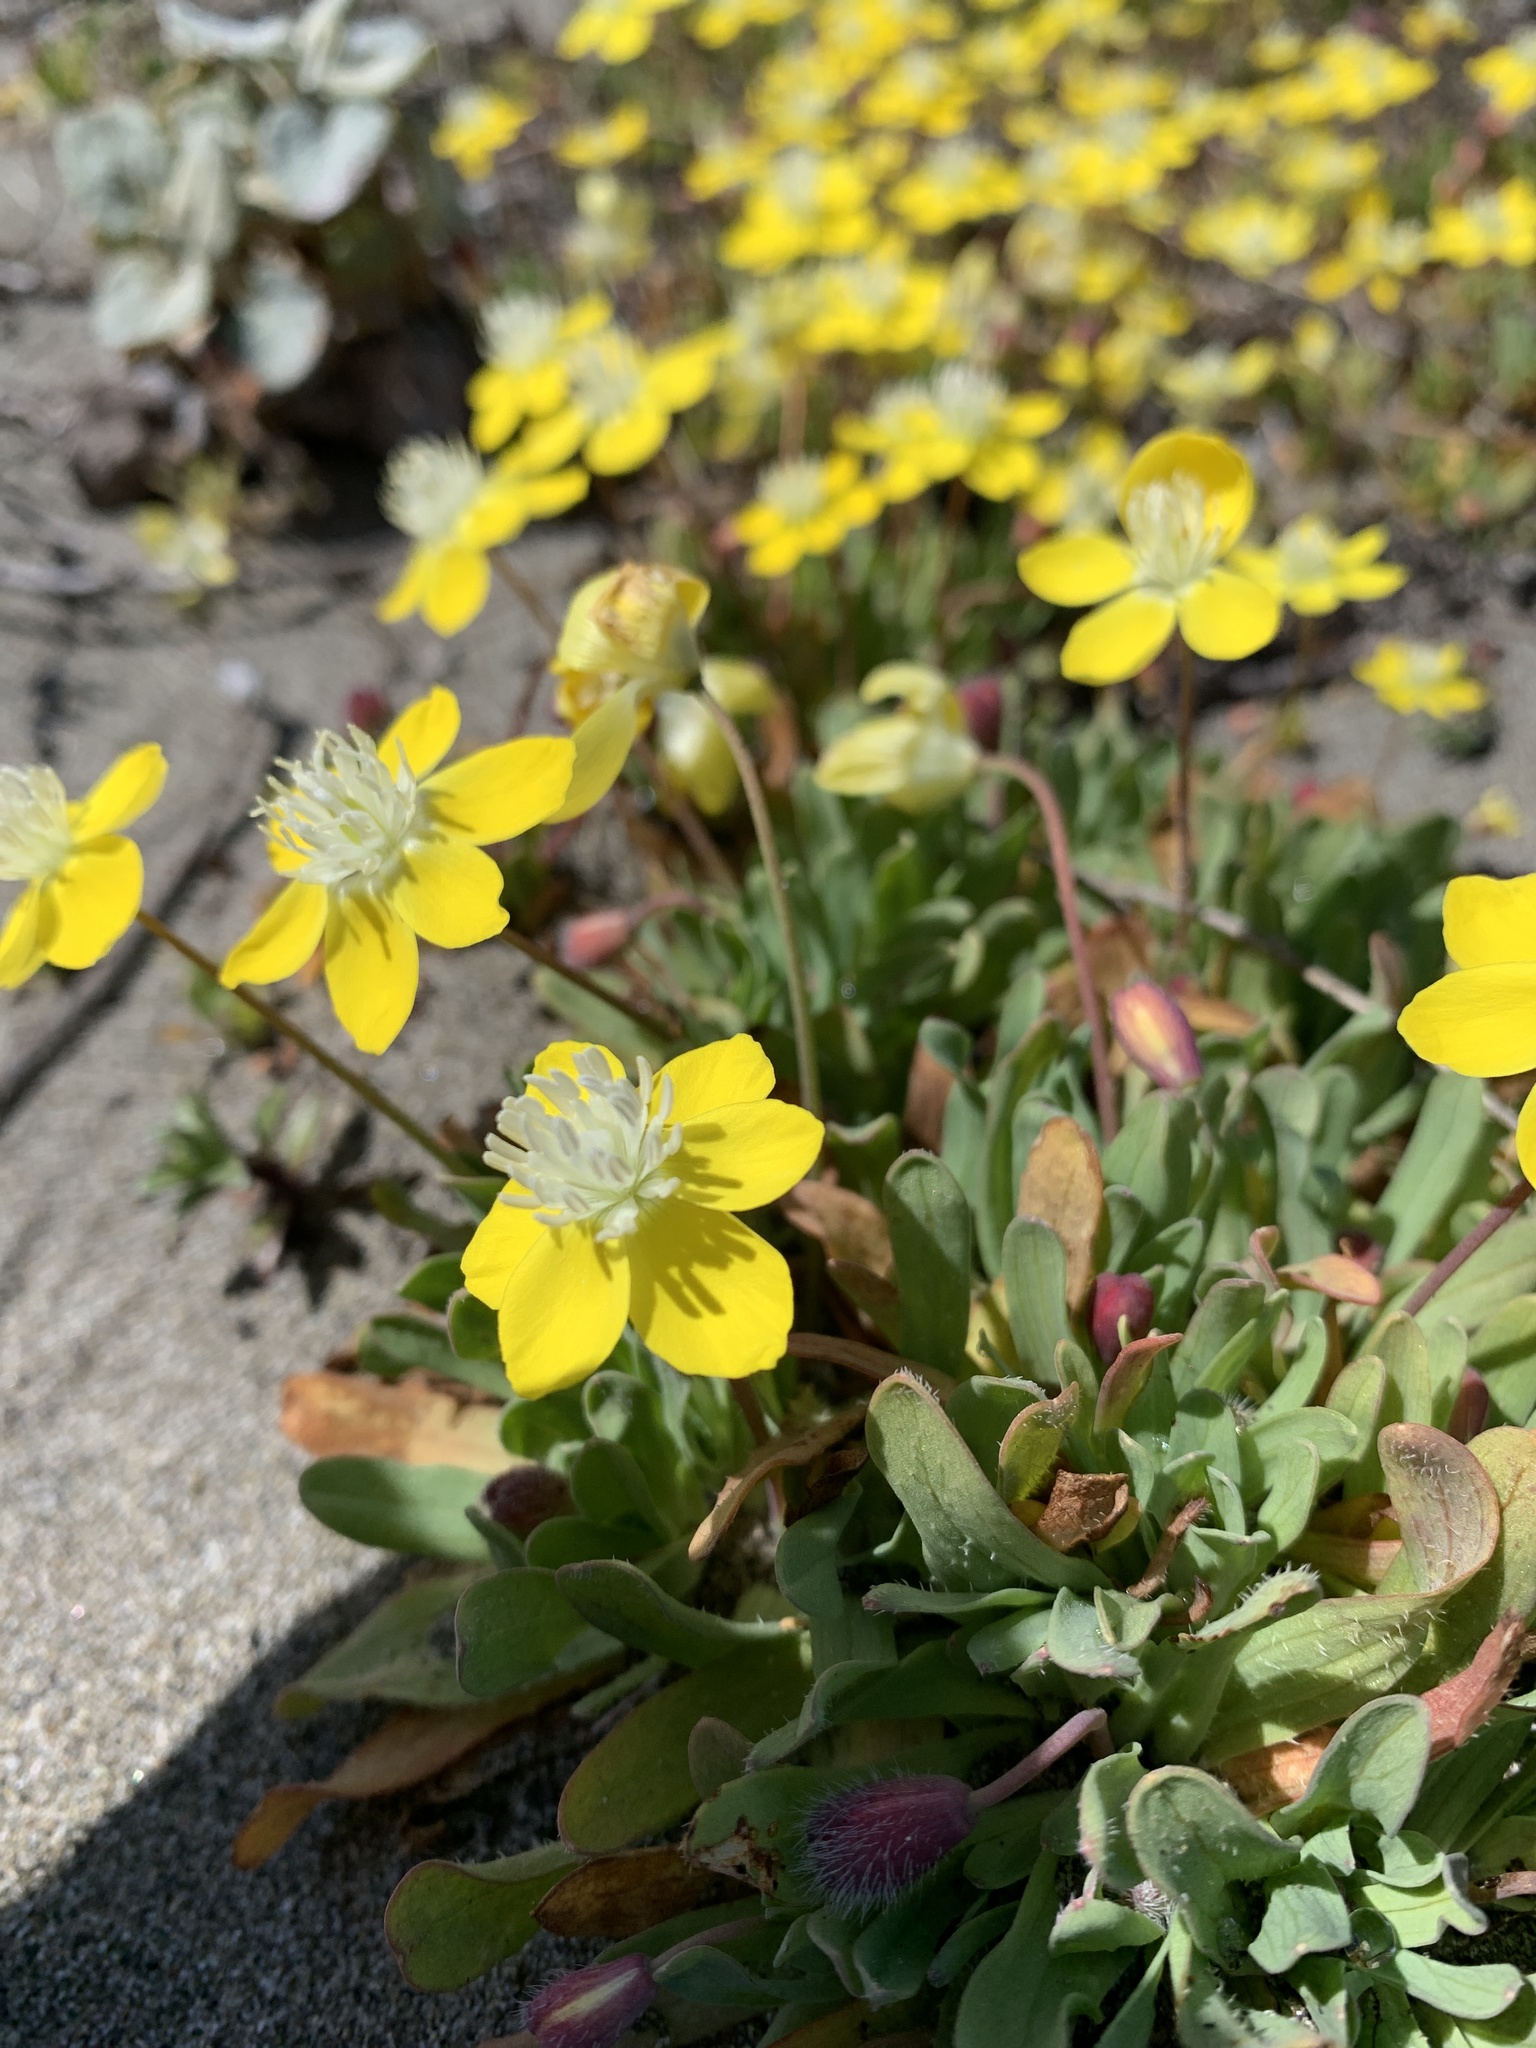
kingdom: Plantae
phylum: Tracheophyta
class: Magnoliopsida
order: Ranunculales
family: Papaveraceae
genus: Platystemon
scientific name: Platystemon californicus
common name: Cream-cups
